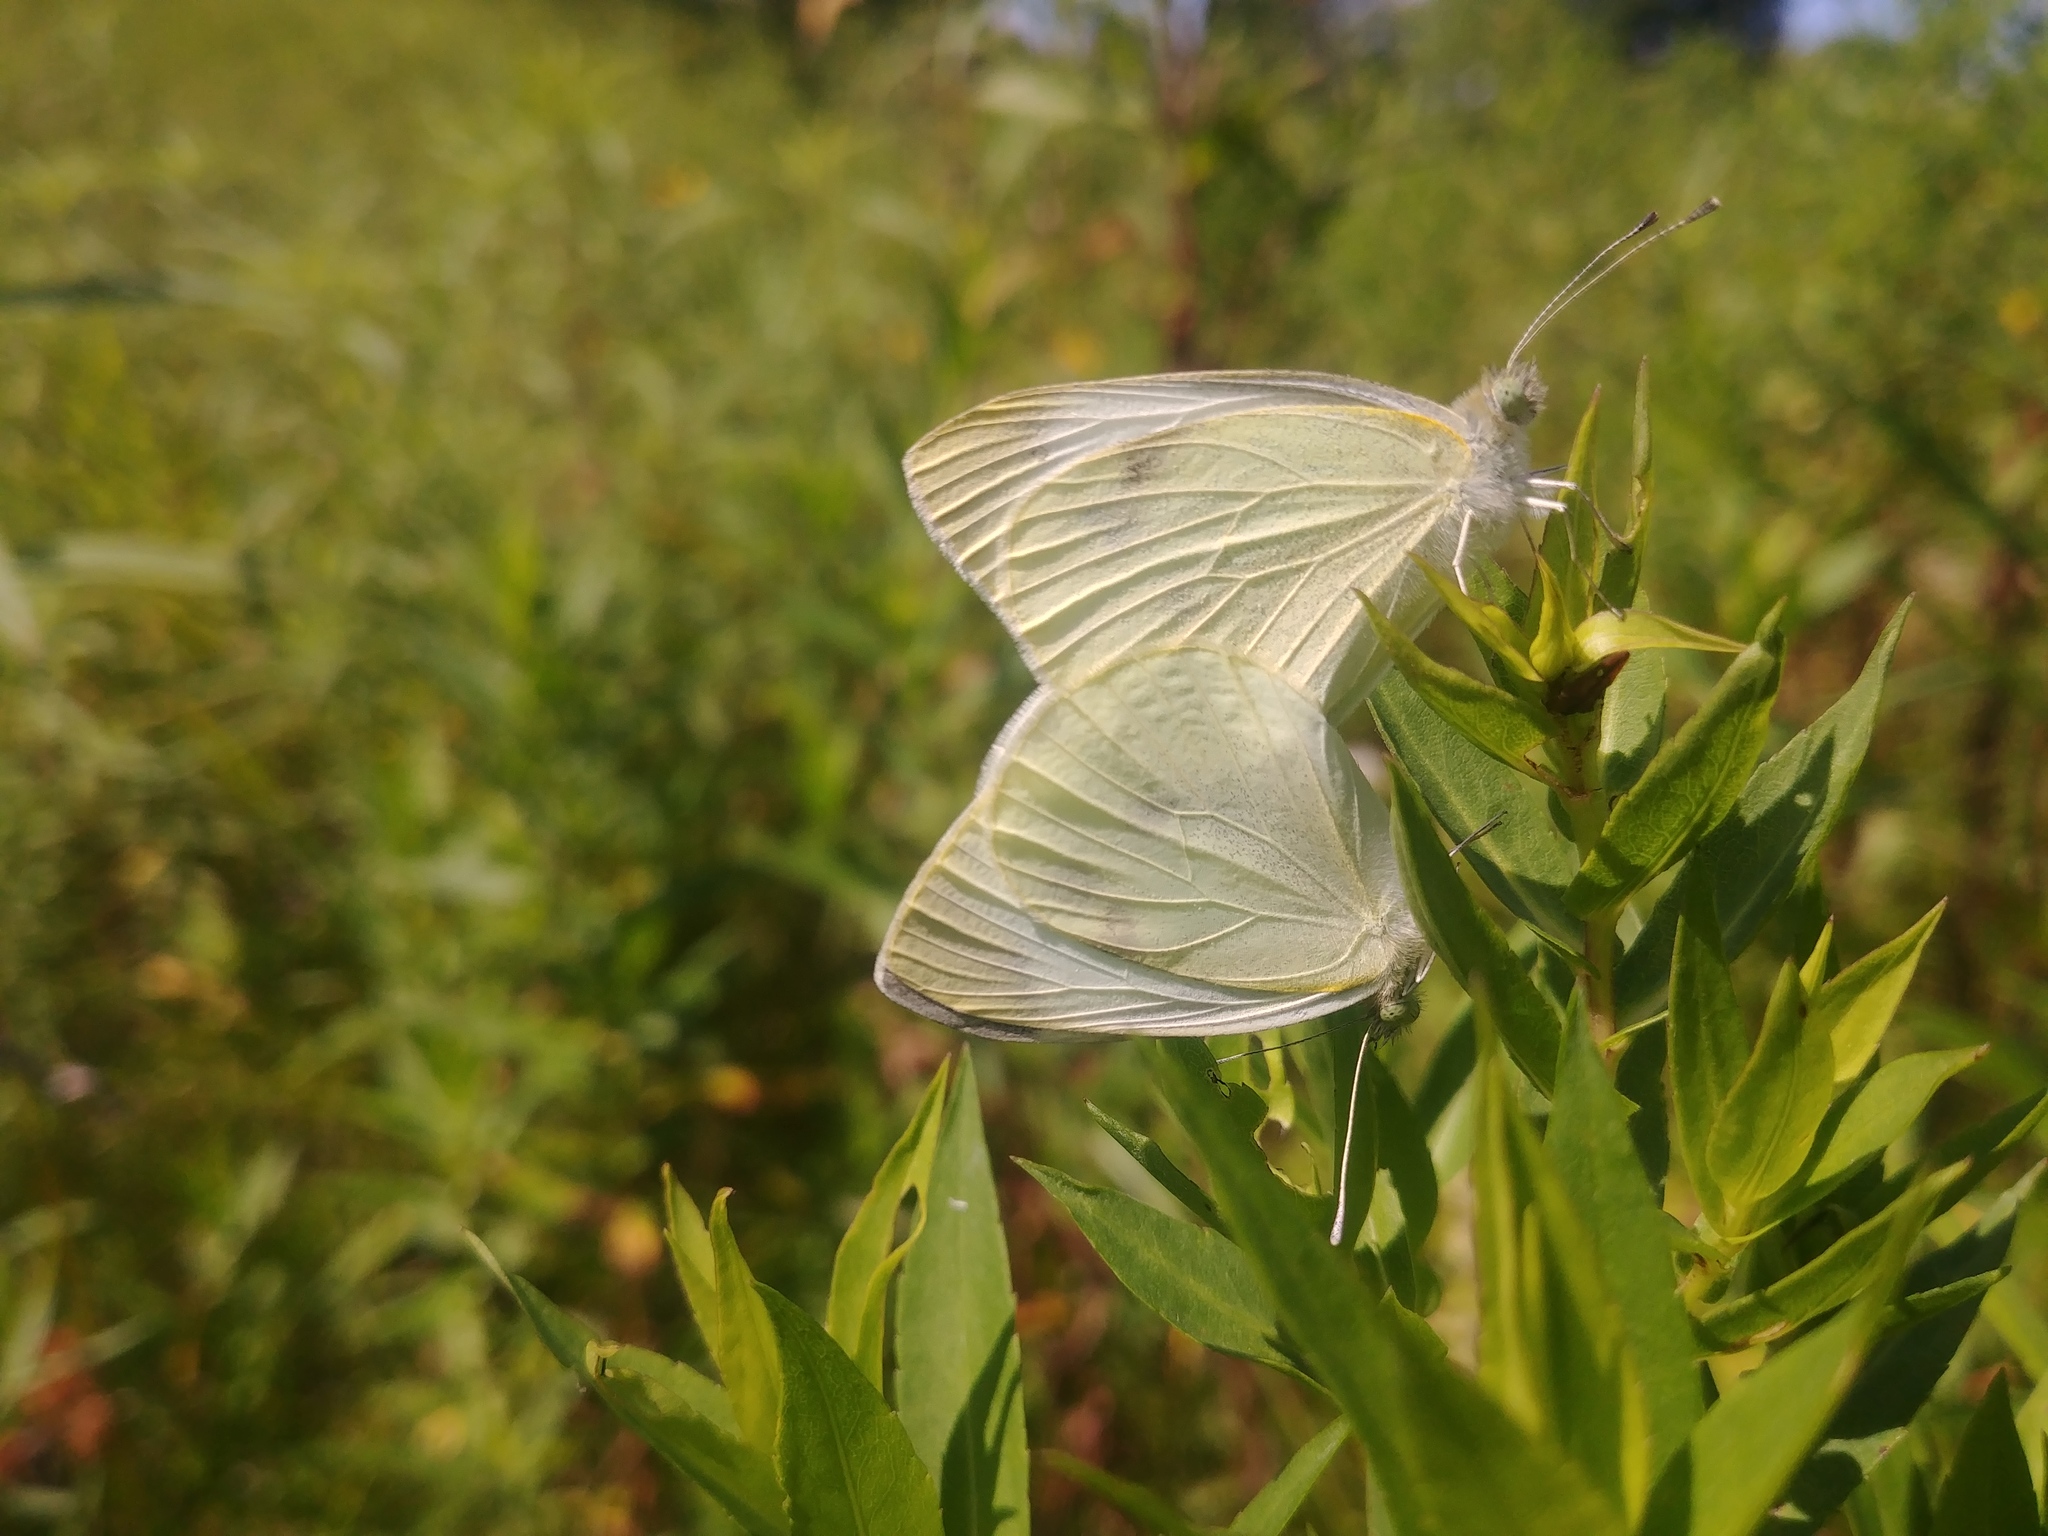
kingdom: Animalia
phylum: Arthropoda
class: Insecta
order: Lepidoptera
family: Pieridae
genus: Pieris
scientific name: Pieris rapae
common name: Small white
